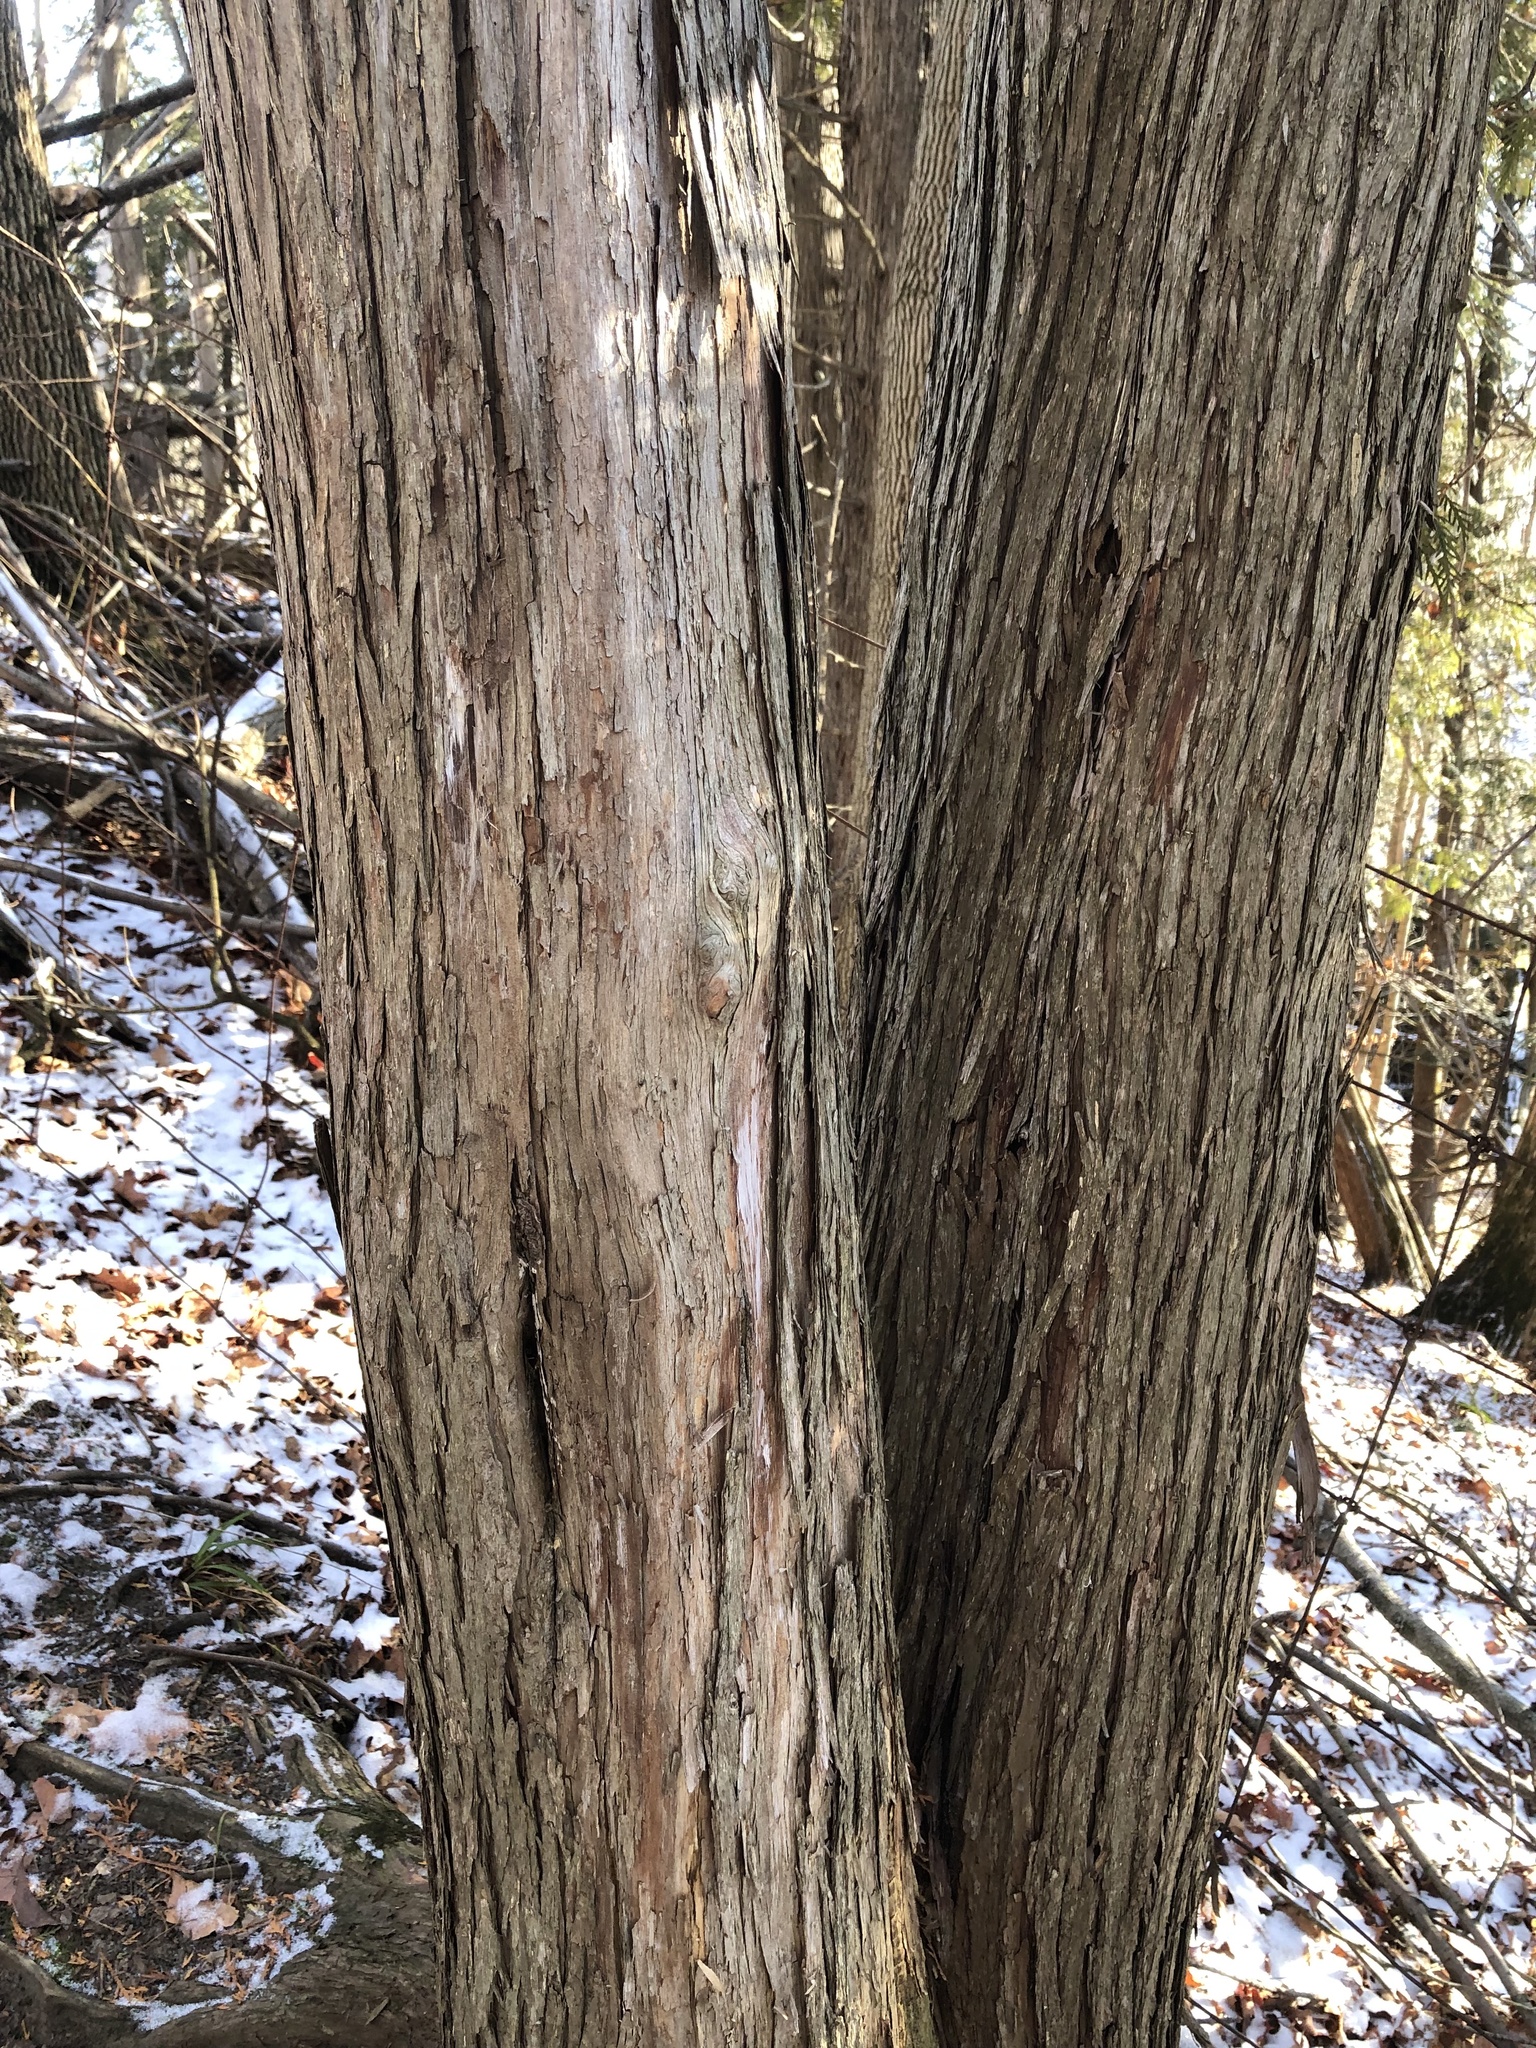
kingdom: Plantae
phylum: Tracheophyta
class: Pinopsida
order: Pinales
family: Cupressaceae
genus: Thuja
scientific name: Thuja occidentalis
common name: Northern white-cedar
